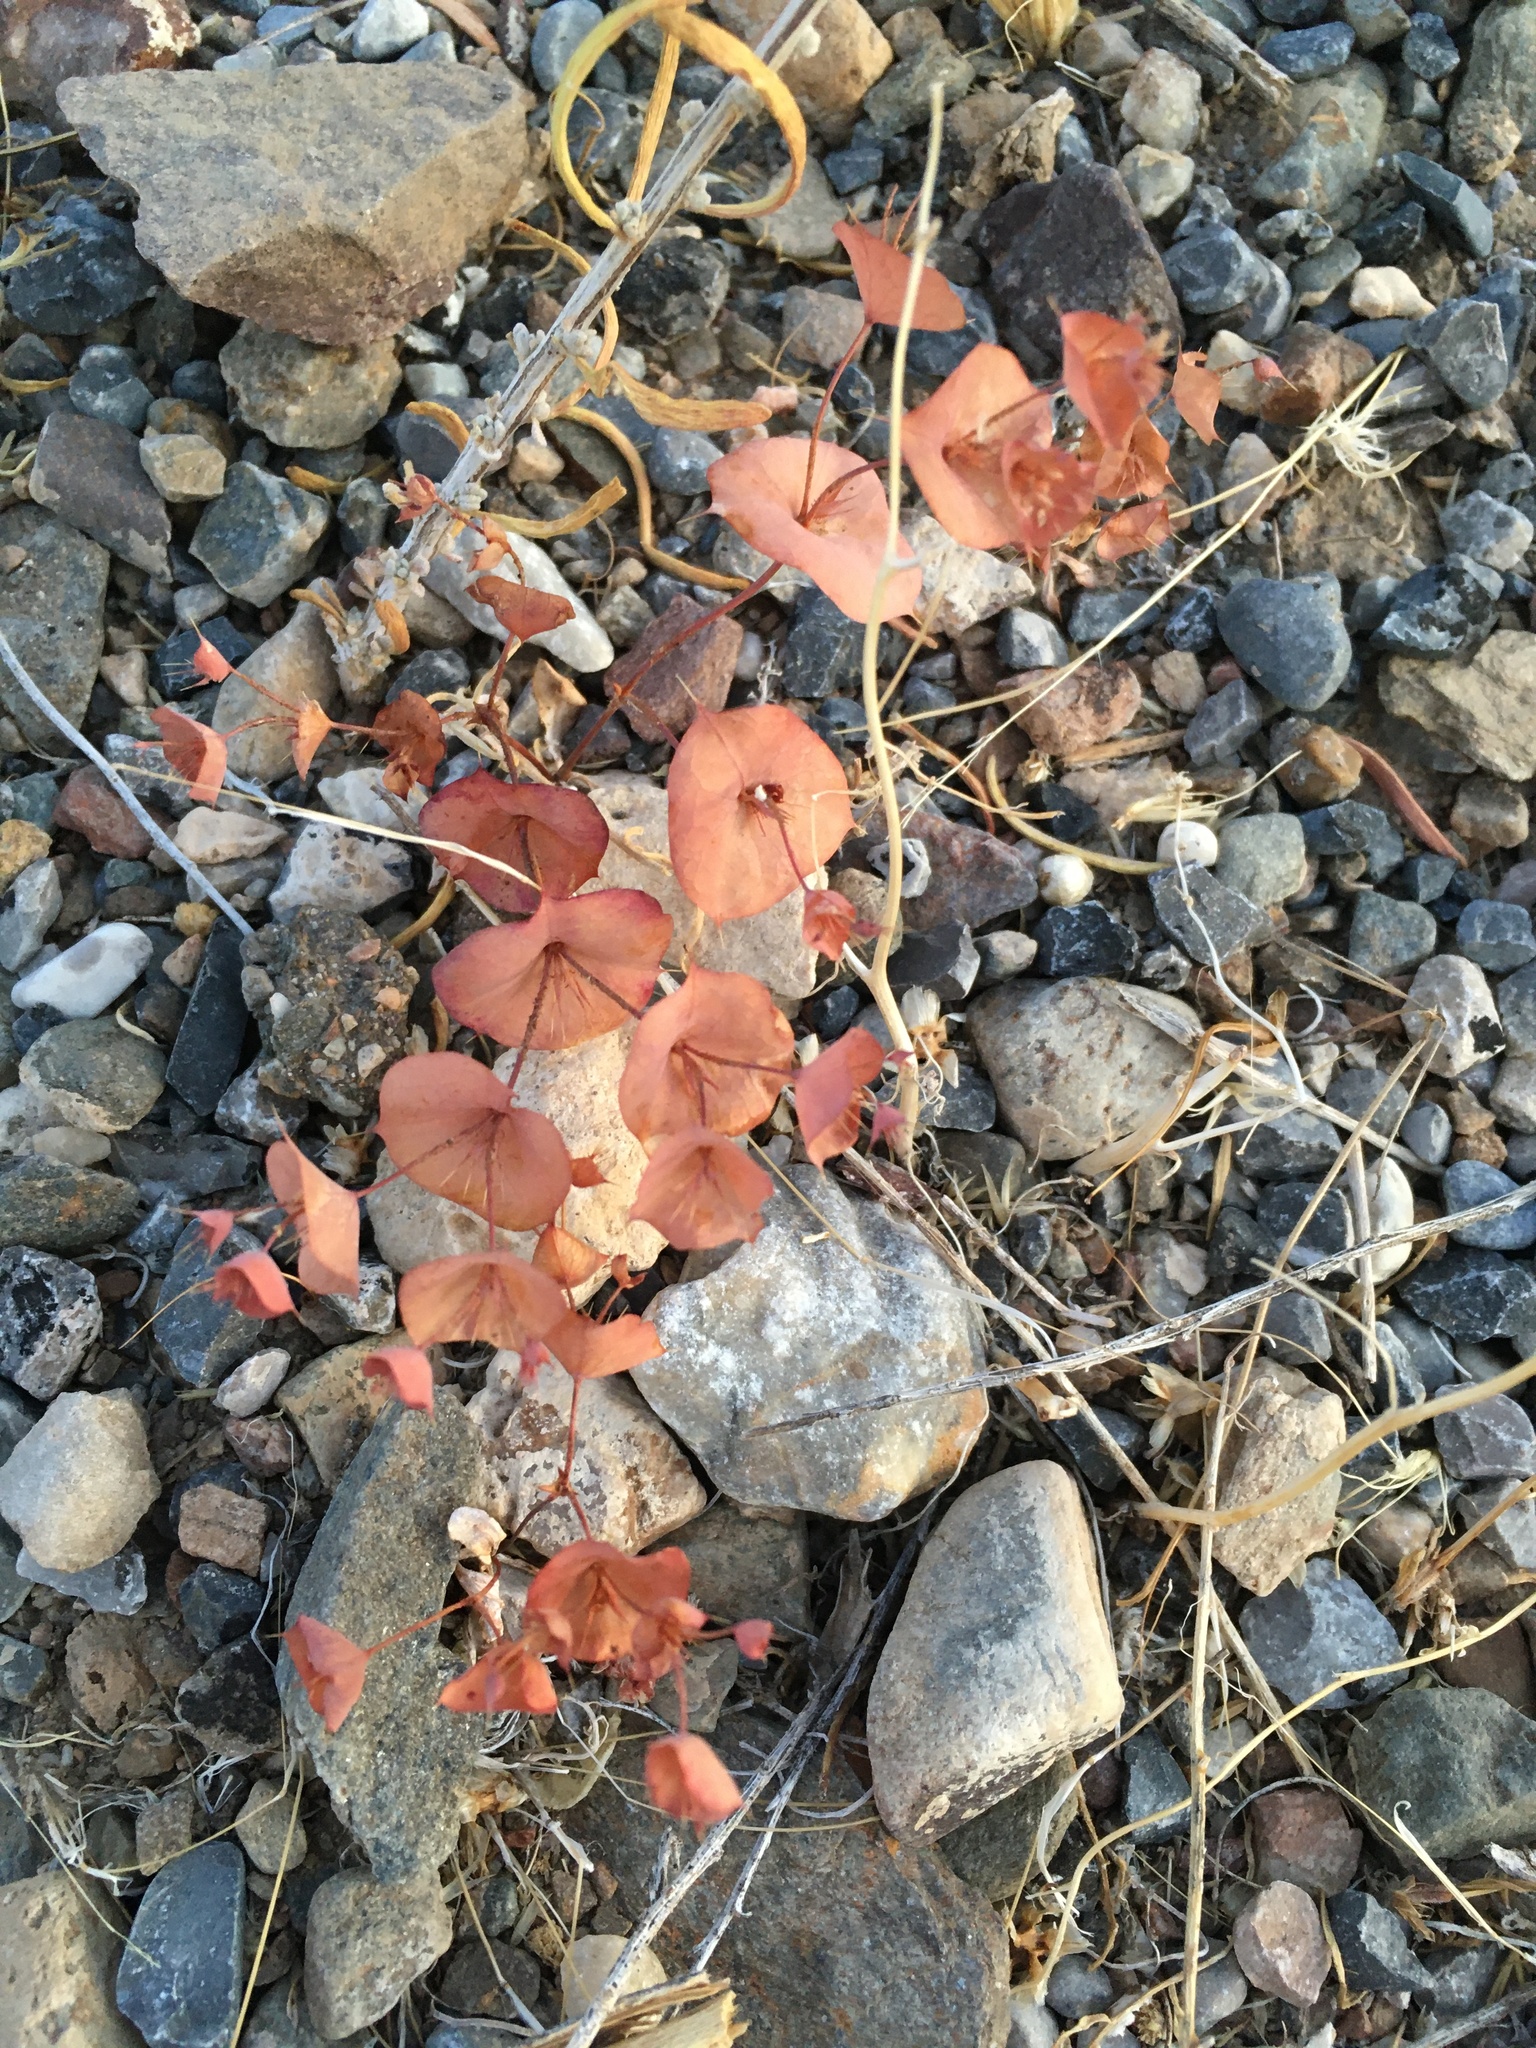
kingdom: Plantae
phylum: Tracheophyta
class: Magnoliopsida
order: Caryophyllales
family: Polygonaceae
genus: Oxytheca
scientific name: Oxytheca perfoliata
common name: Round-leaf puncturebract
